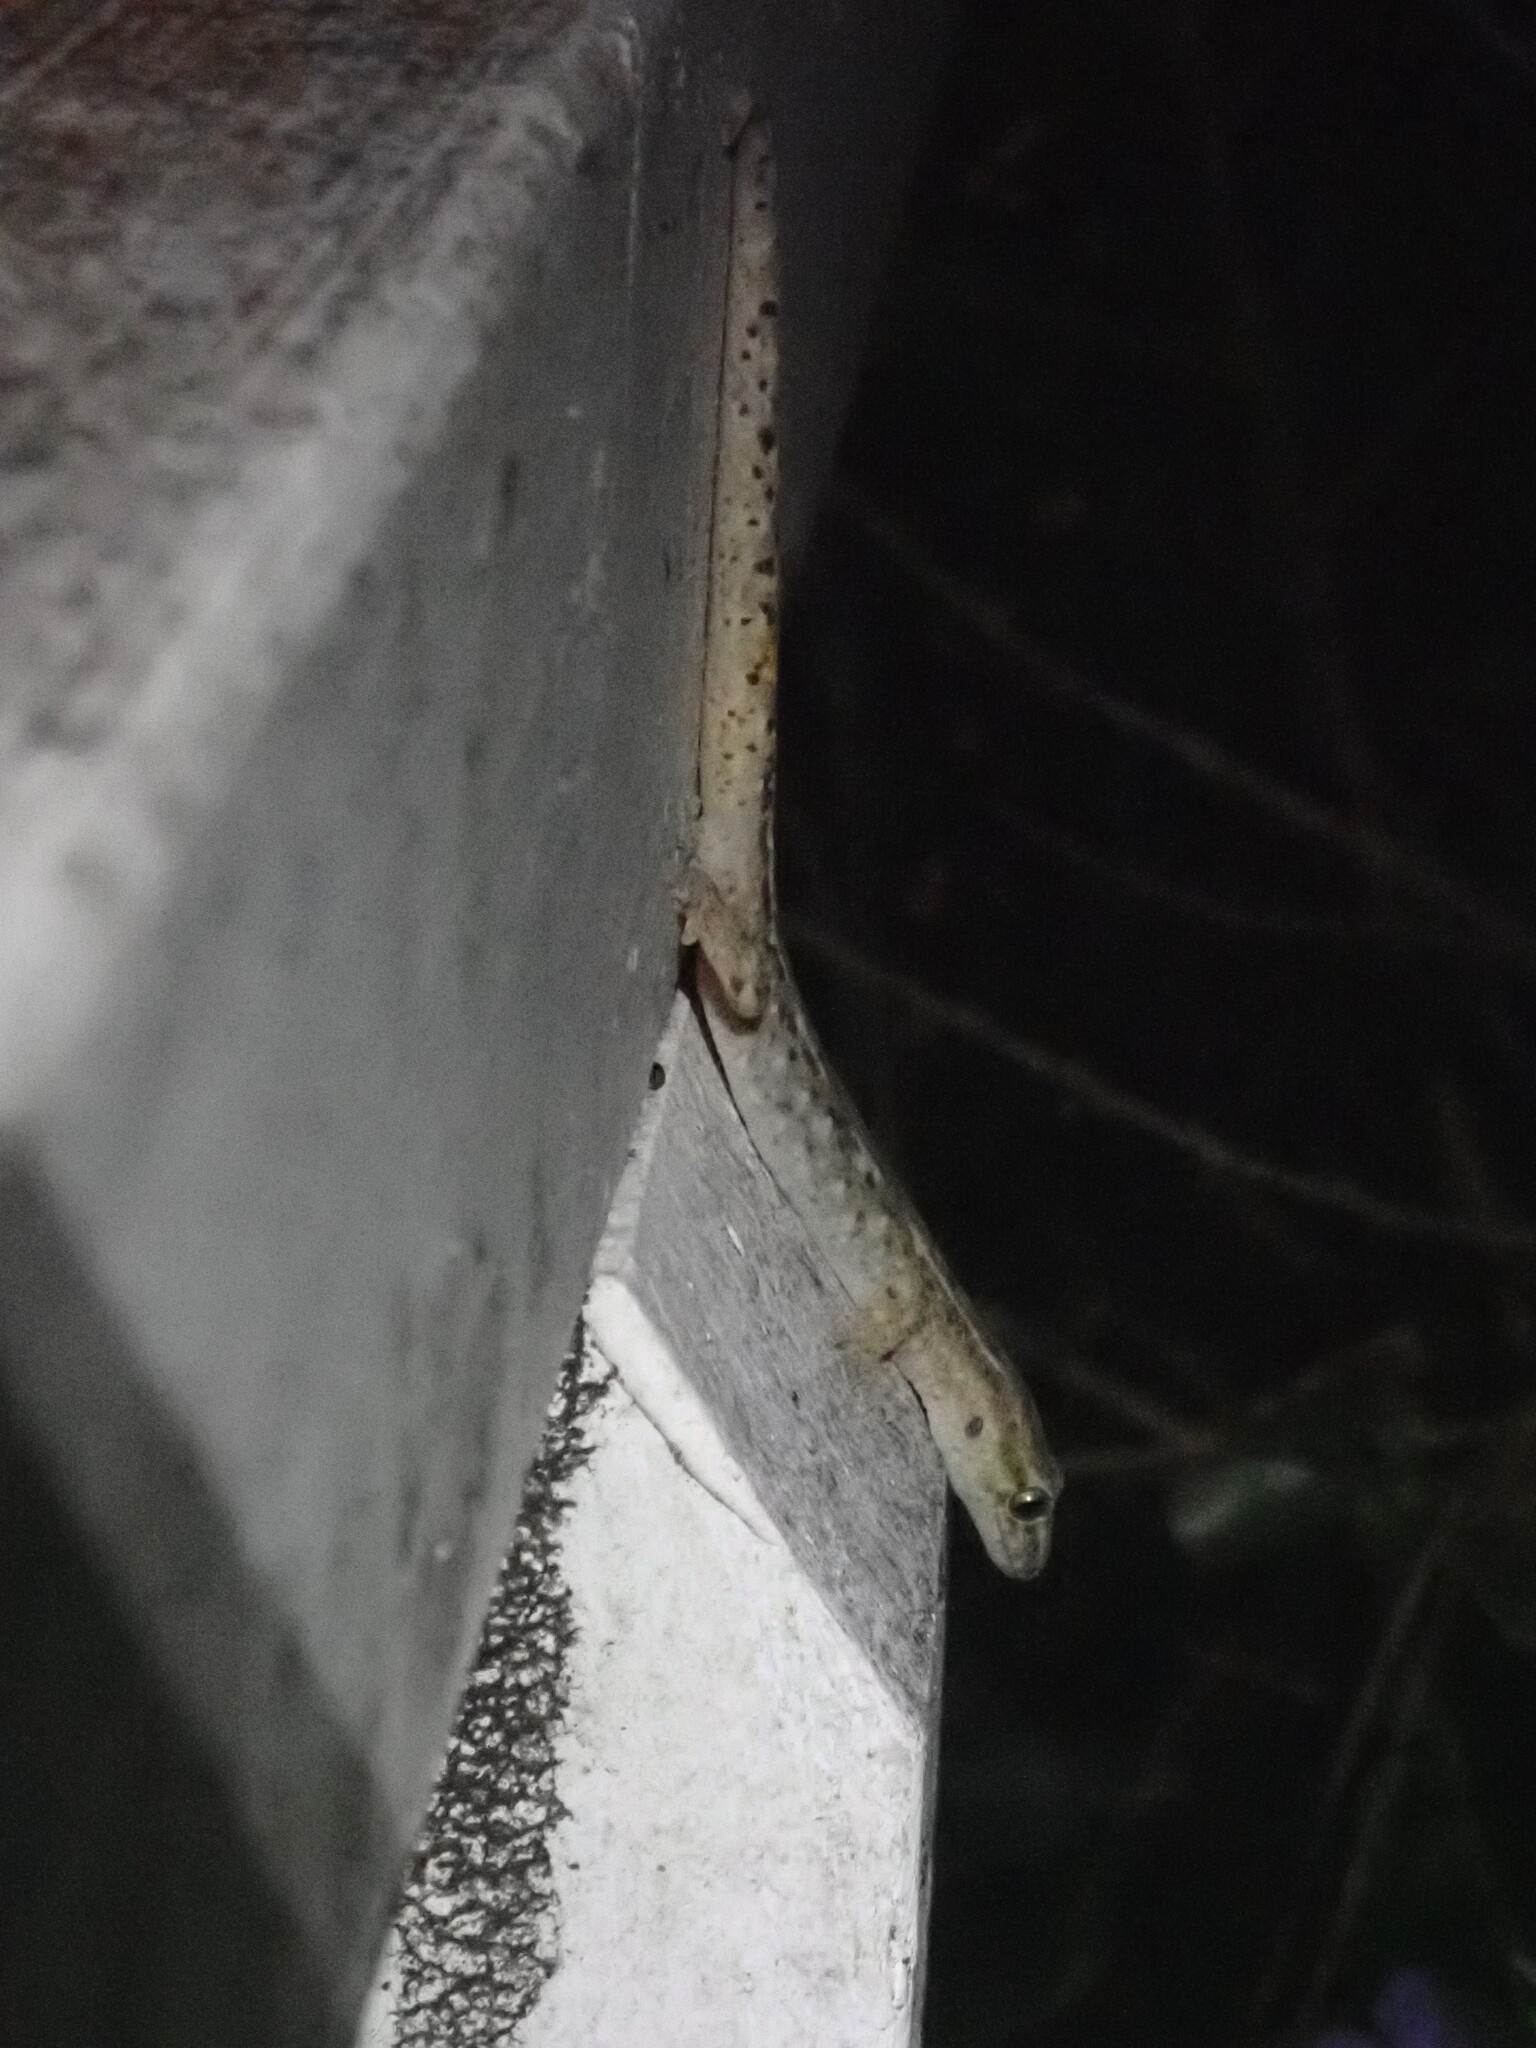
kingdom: Animalia
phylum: Chordata
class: Squamata
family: Diplodactylidae
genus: Woodworthia
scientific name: Woodworthia maculata
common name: Raukawa gecko
